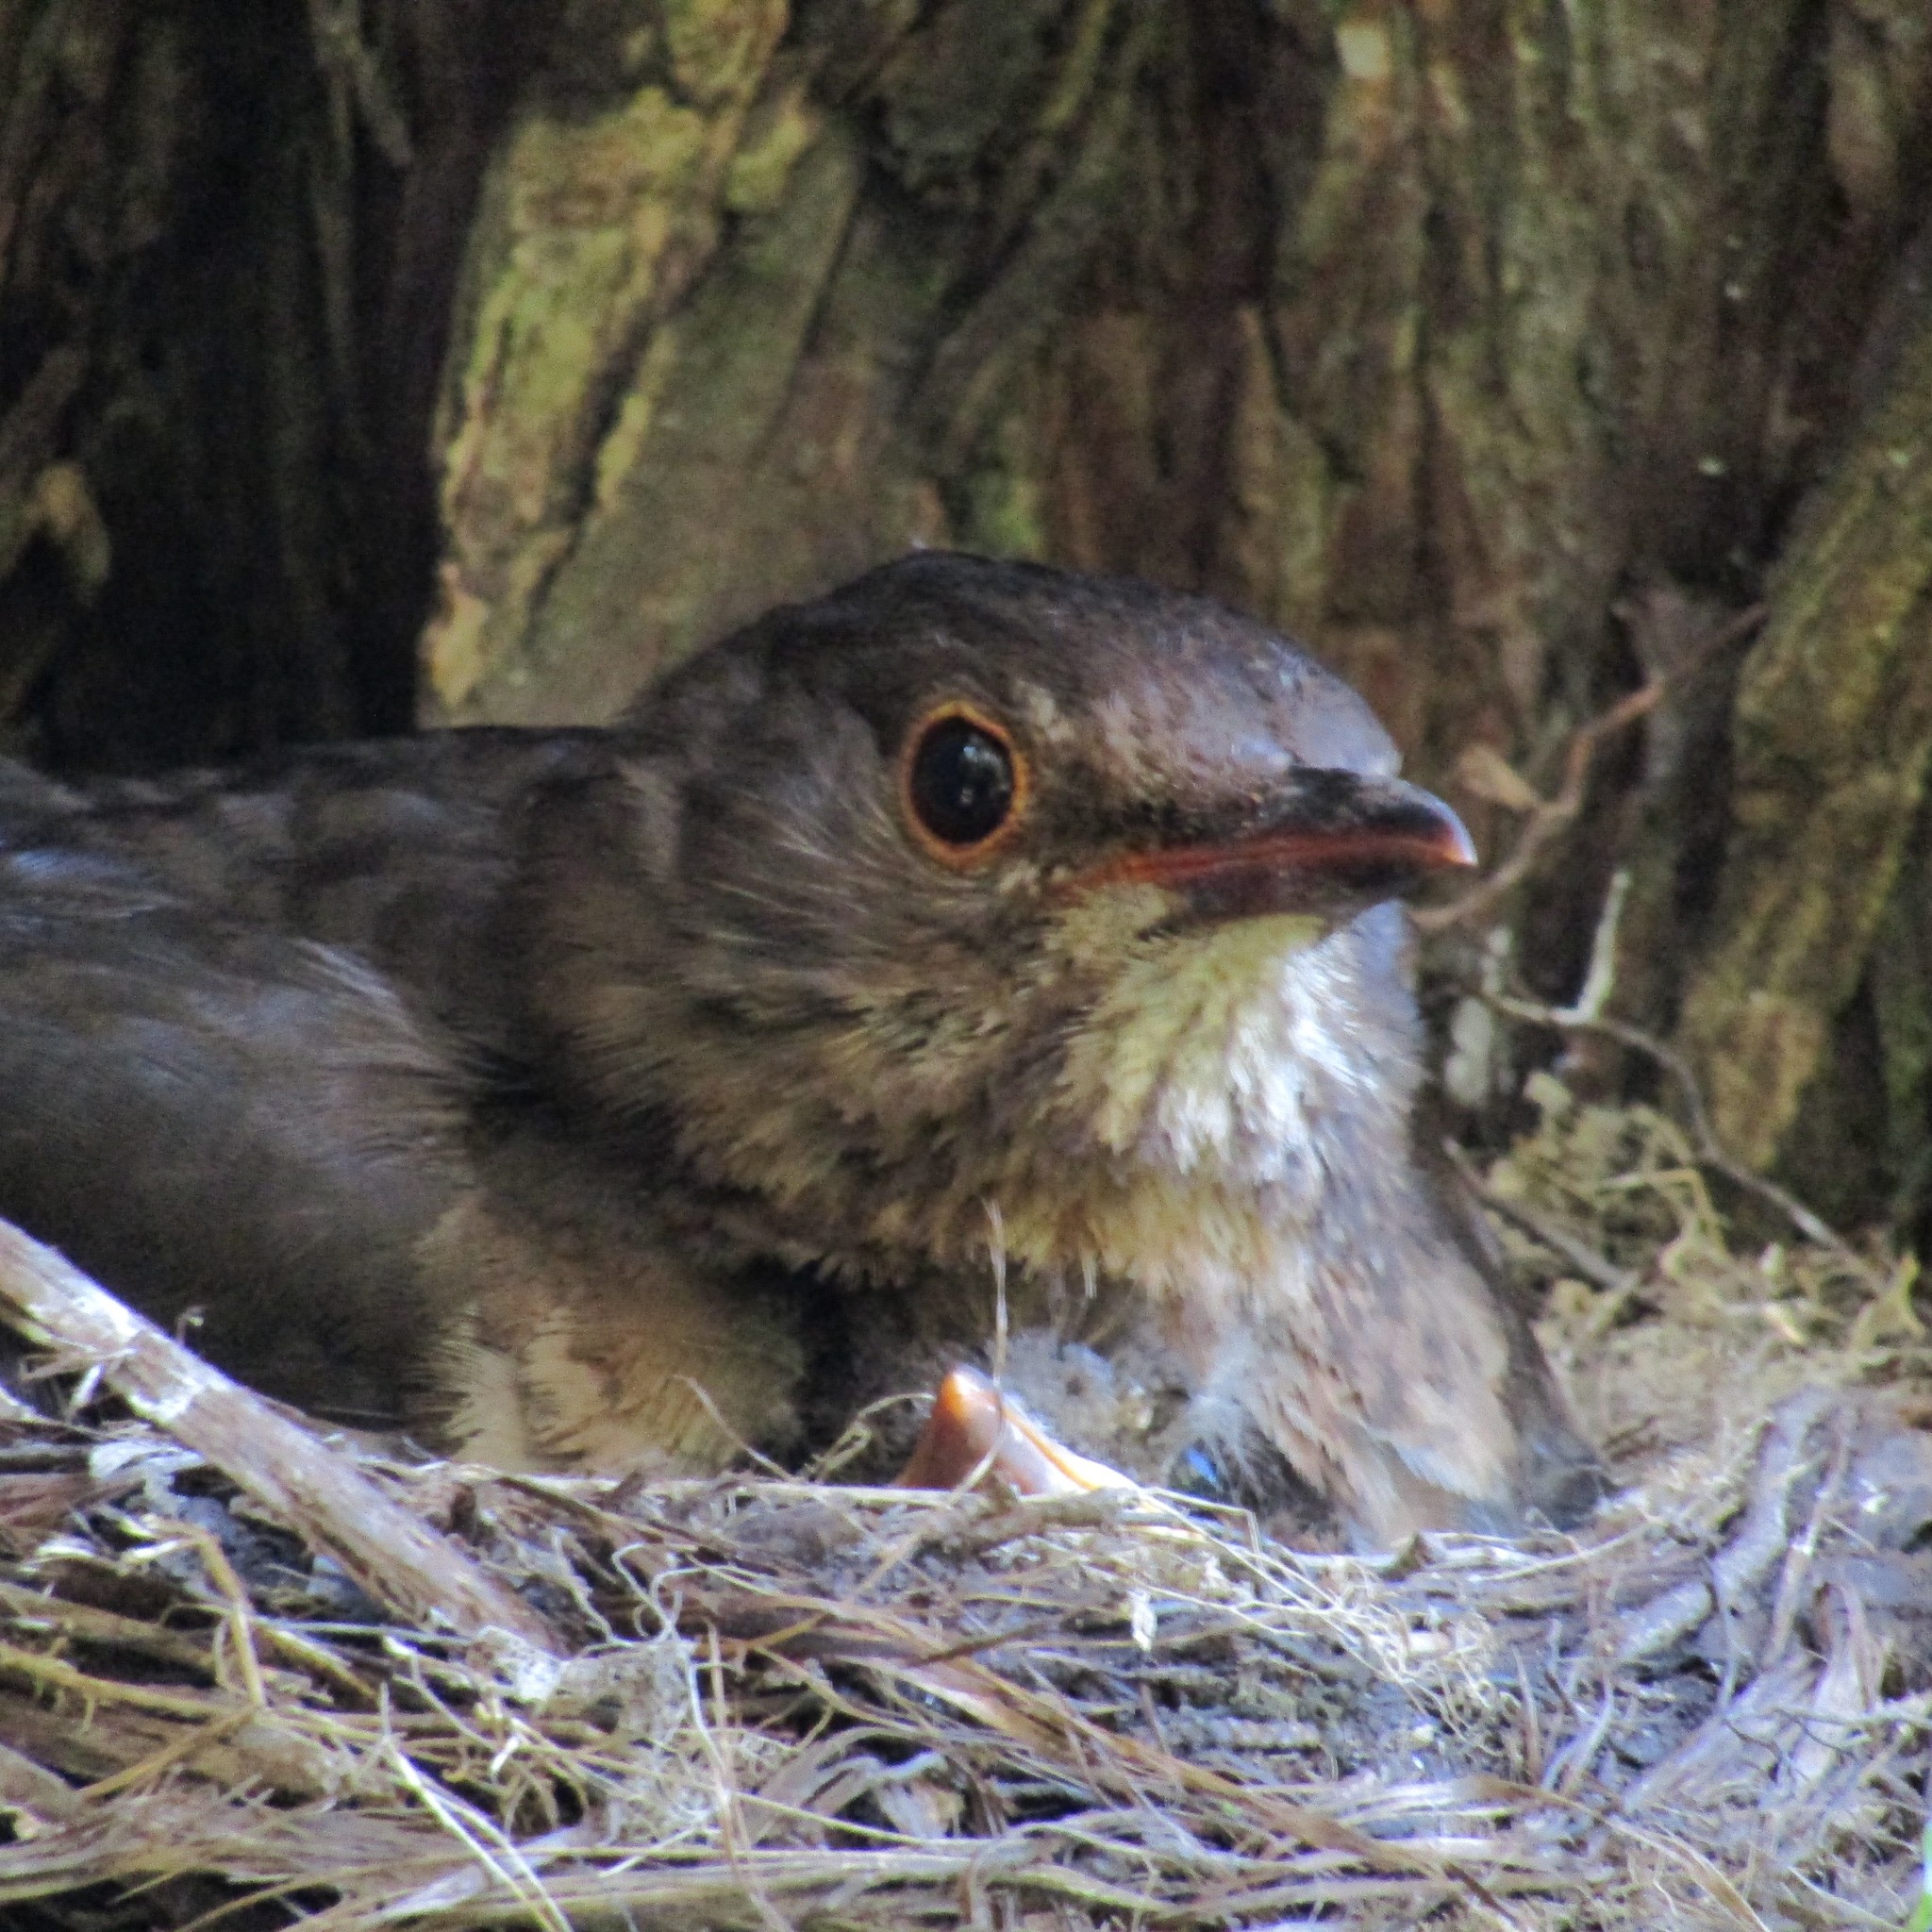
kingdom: Animalia
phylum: Chordata
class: Aves
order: Passeriformes
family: Turdidae
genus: Turdus
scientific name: Turdus merula
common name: Common blackbird
